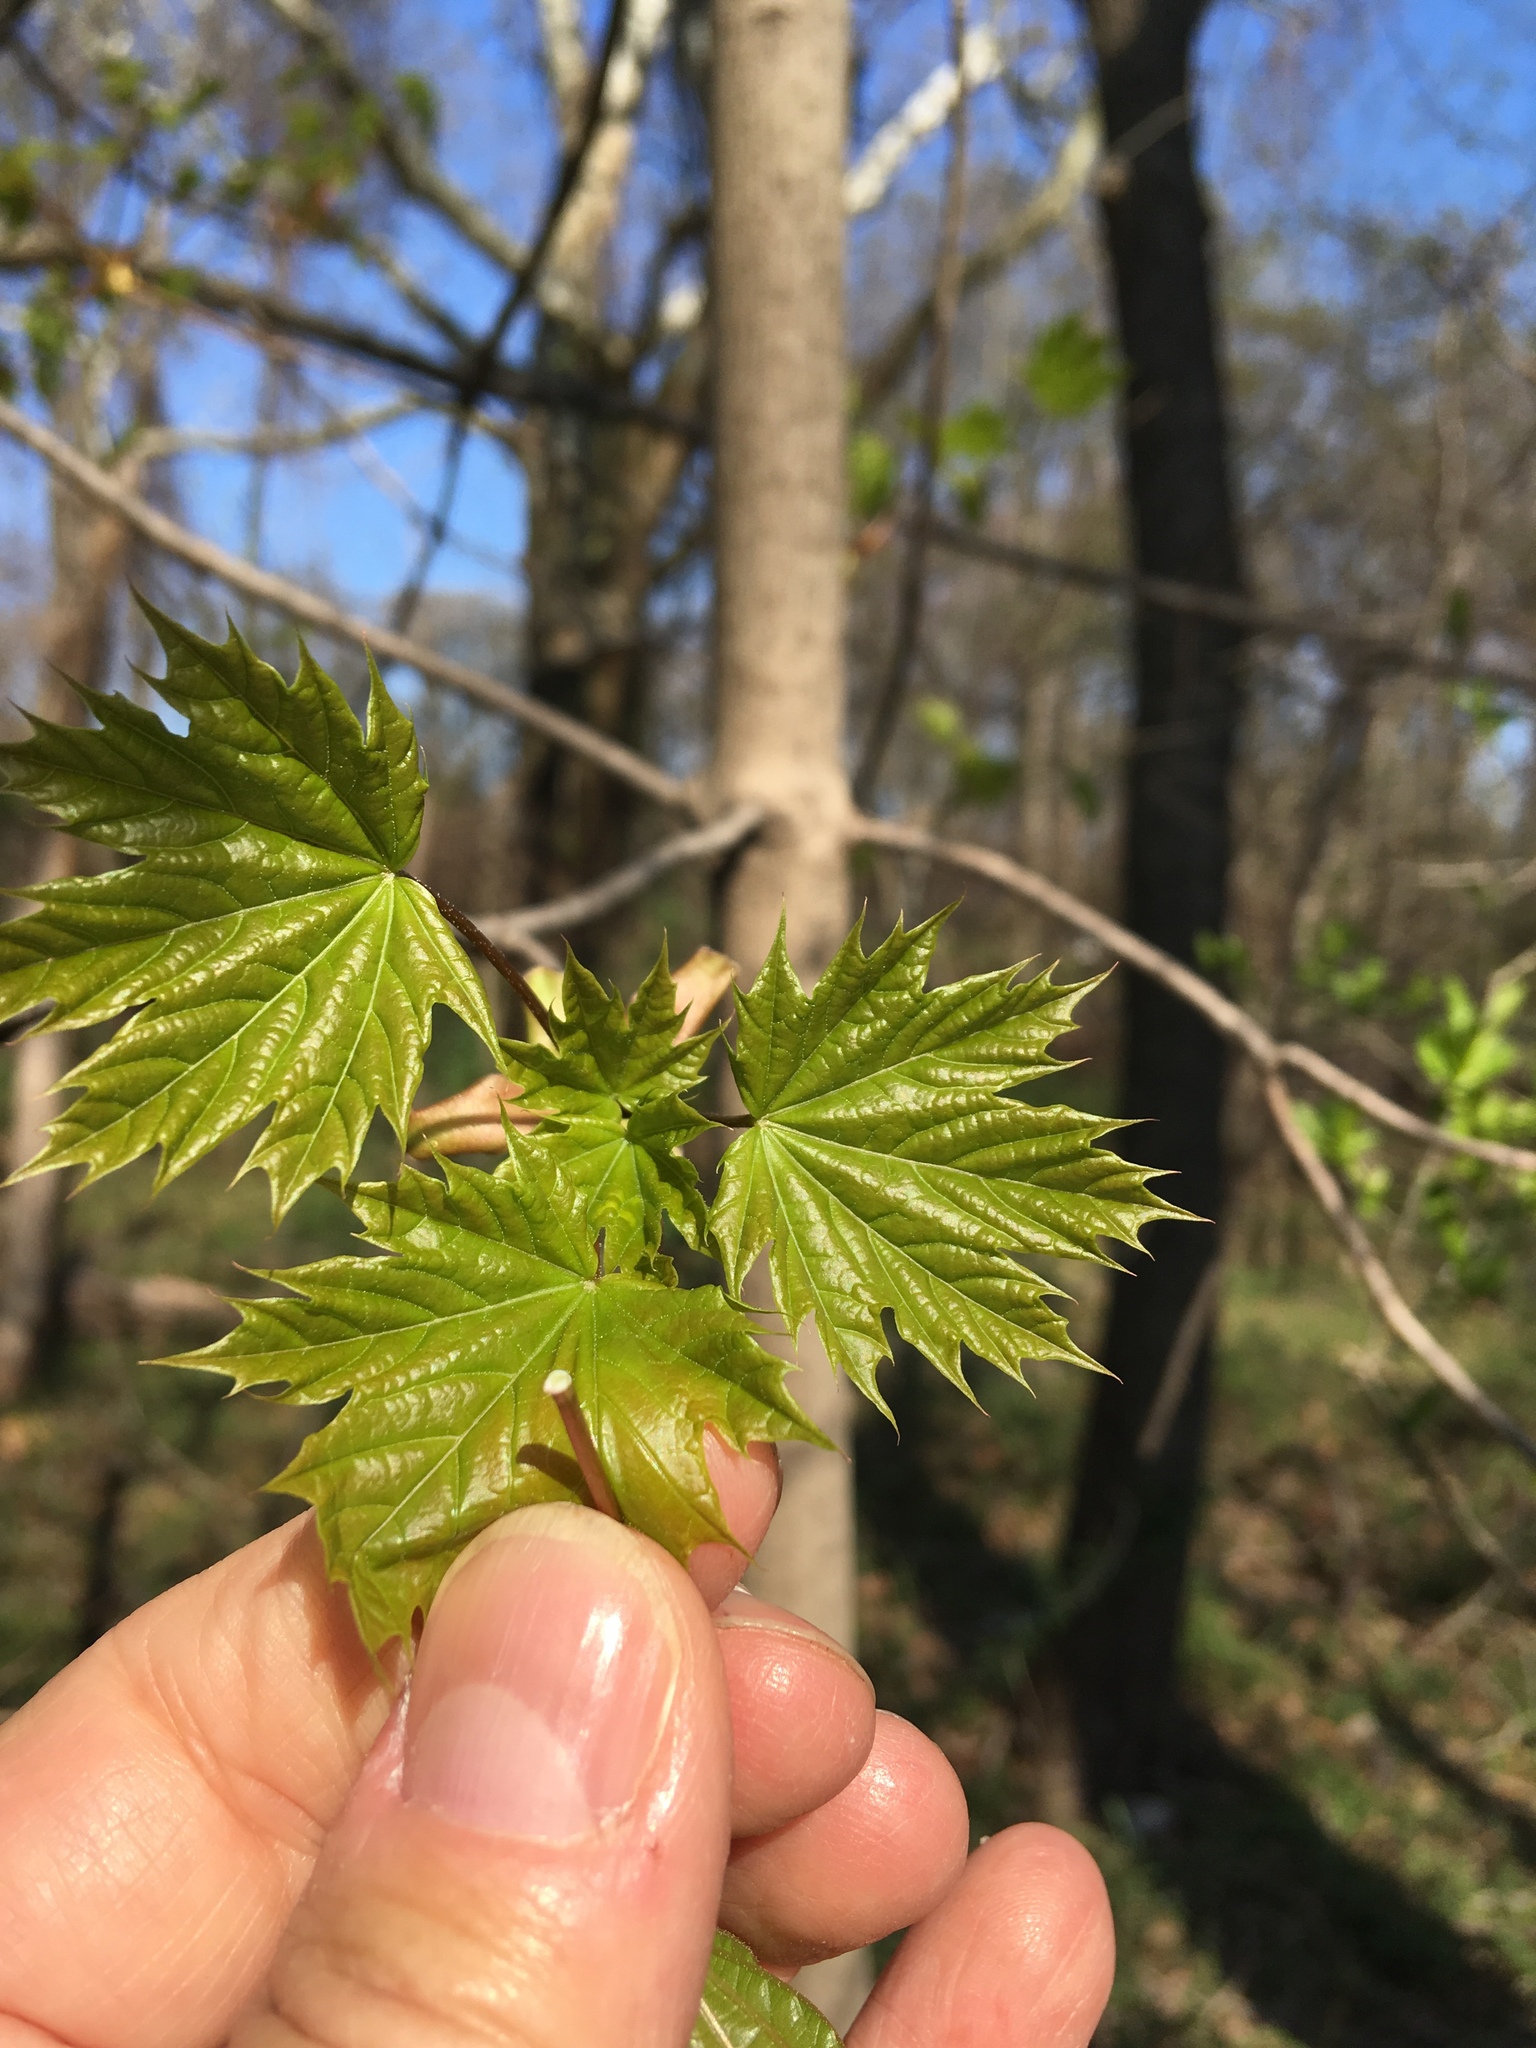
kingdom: Plantae
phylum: Tracheophyta
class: Magnoliopsida
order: Sapindales
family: Sapindaceae
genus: Acer
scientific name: Acer platanoides
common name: Norway maple
